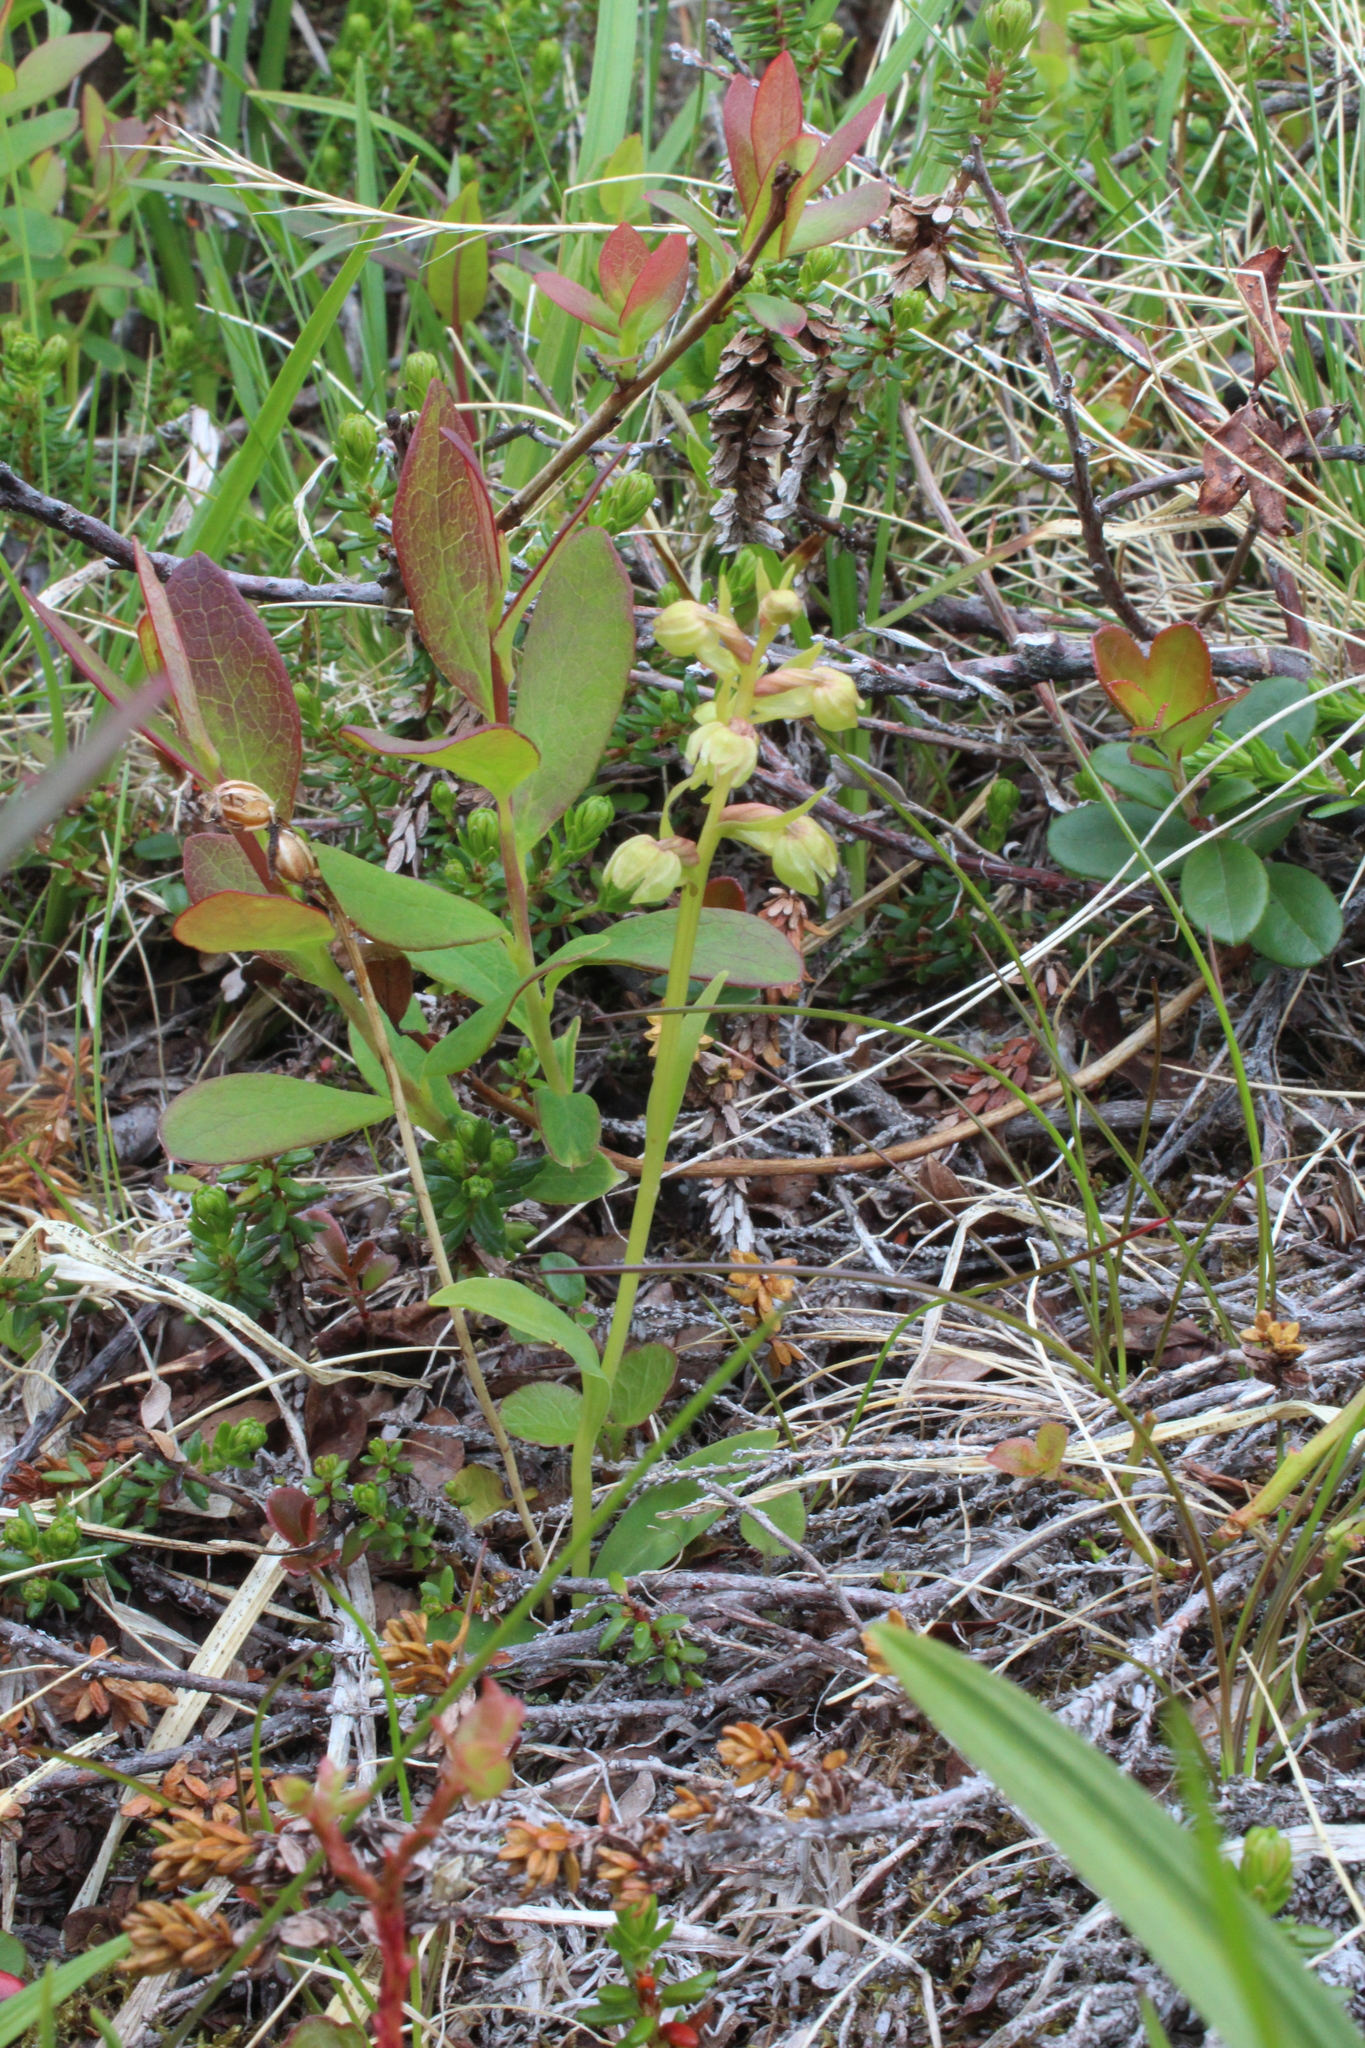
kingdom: Plantae
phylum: Tracheophyta
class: Liliopsida
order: Asparagales
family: Orchidaceae
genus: Dactylorhiza
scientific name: Dactylorhiza viridis
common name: Longbract frog orchid
